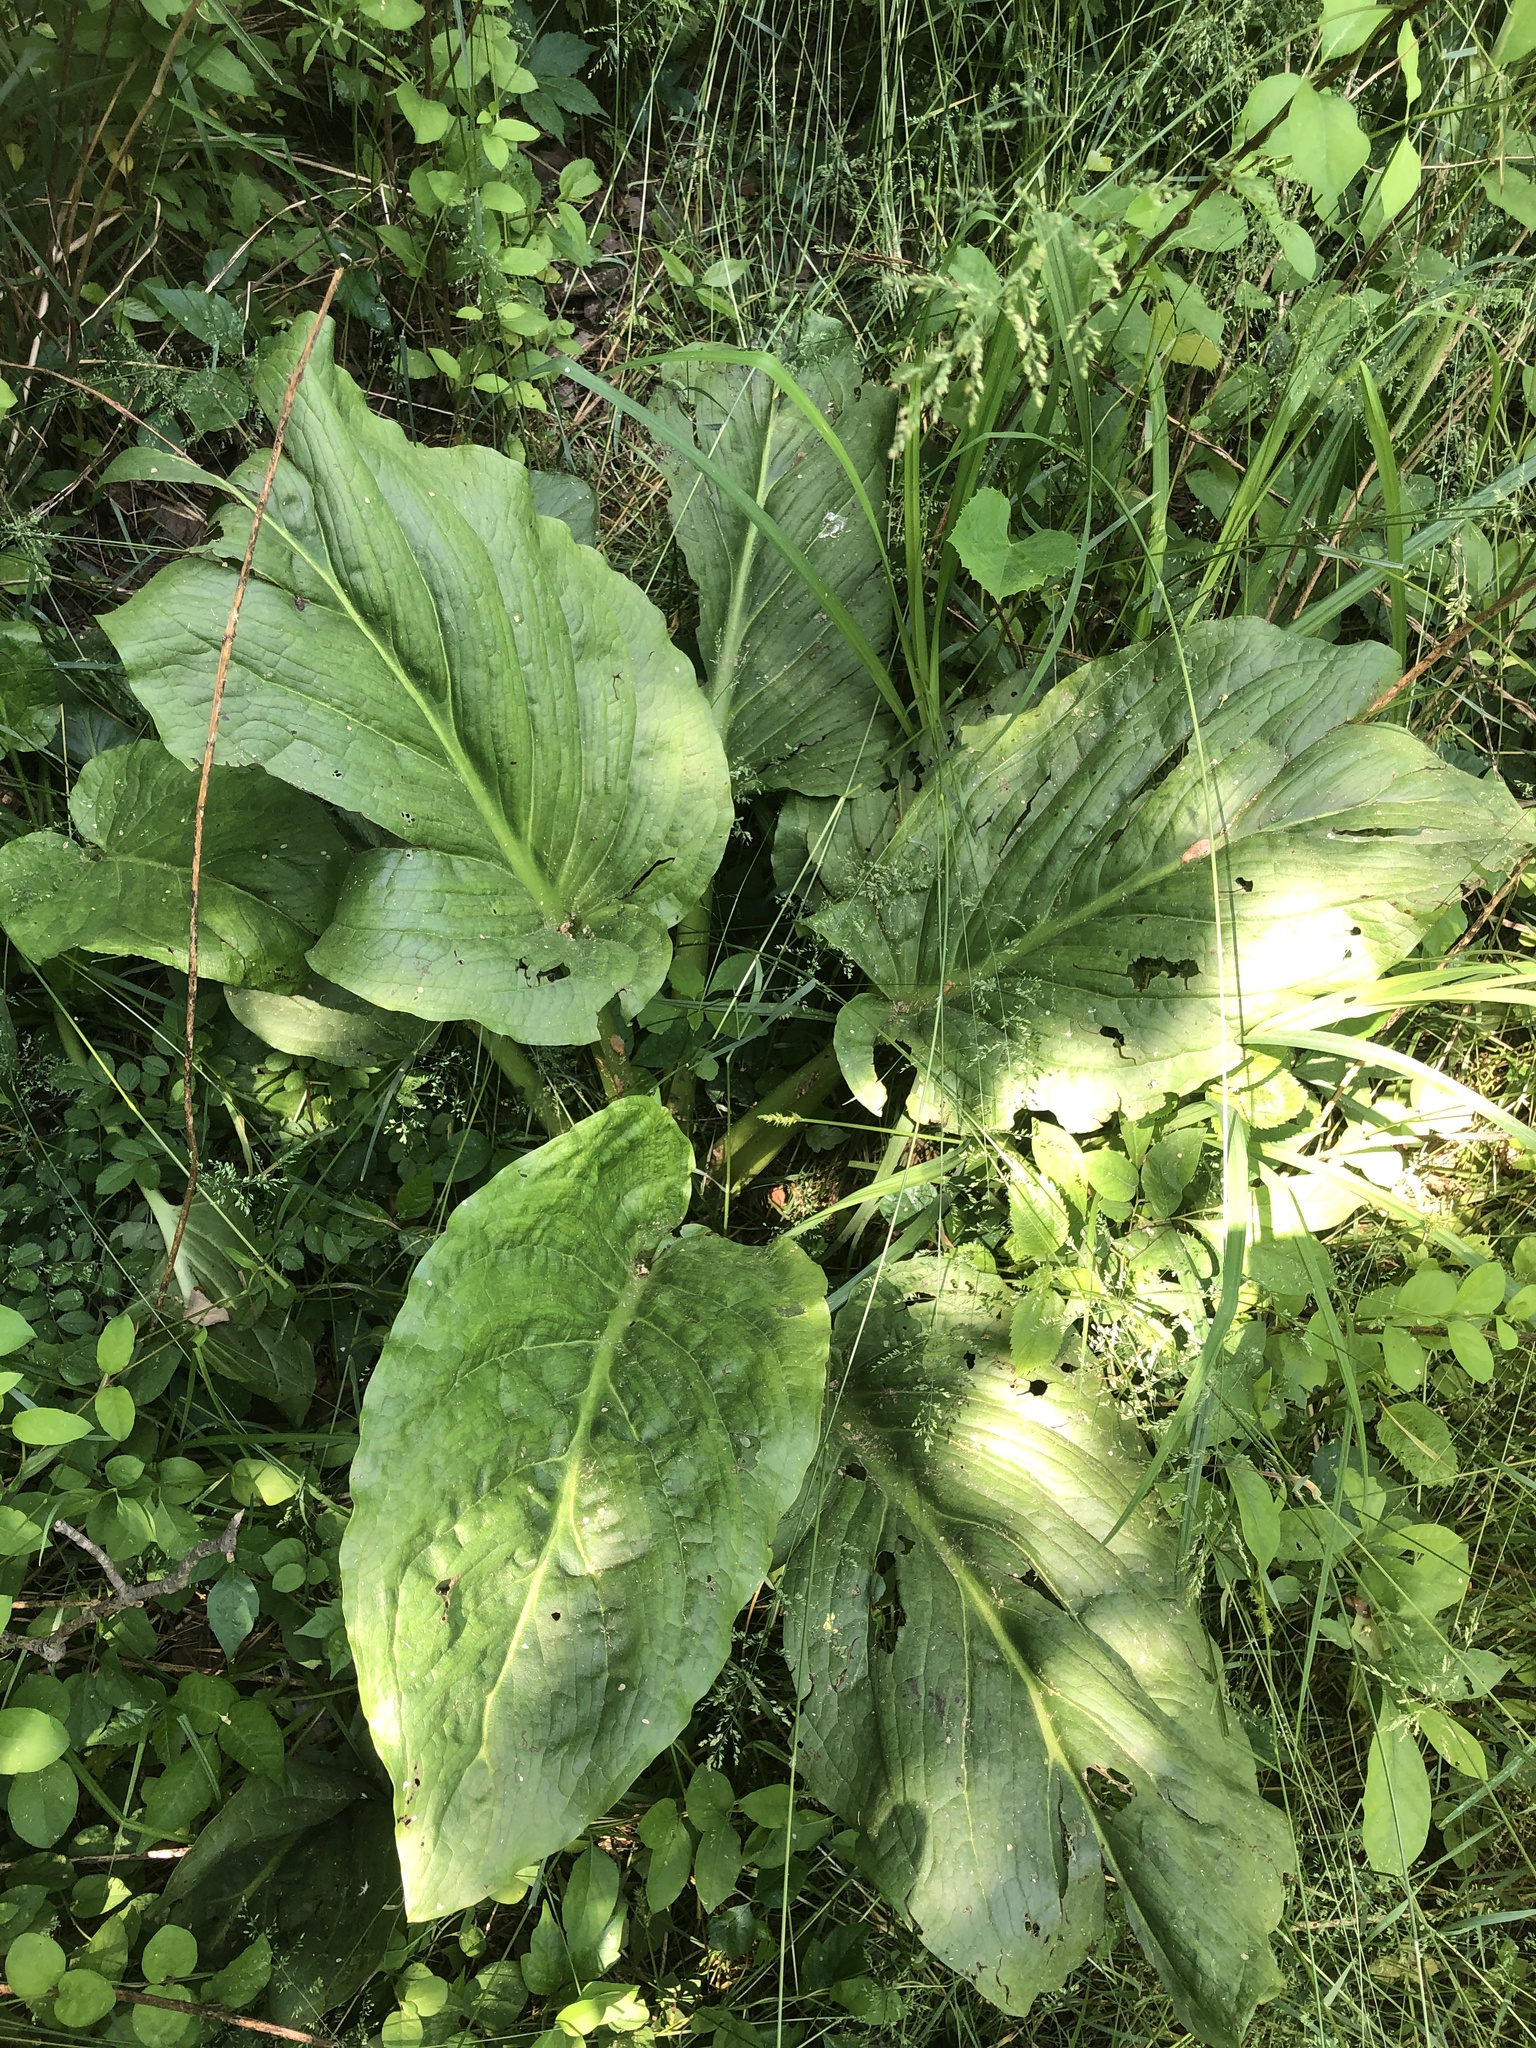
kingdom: Plantae
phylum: Tracheophyta
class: Liliopsida
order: Alismatales
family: Araceae
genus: Symplocarpus
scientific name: Symplocarpus foetidus
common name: Eastern skunk cabbage
